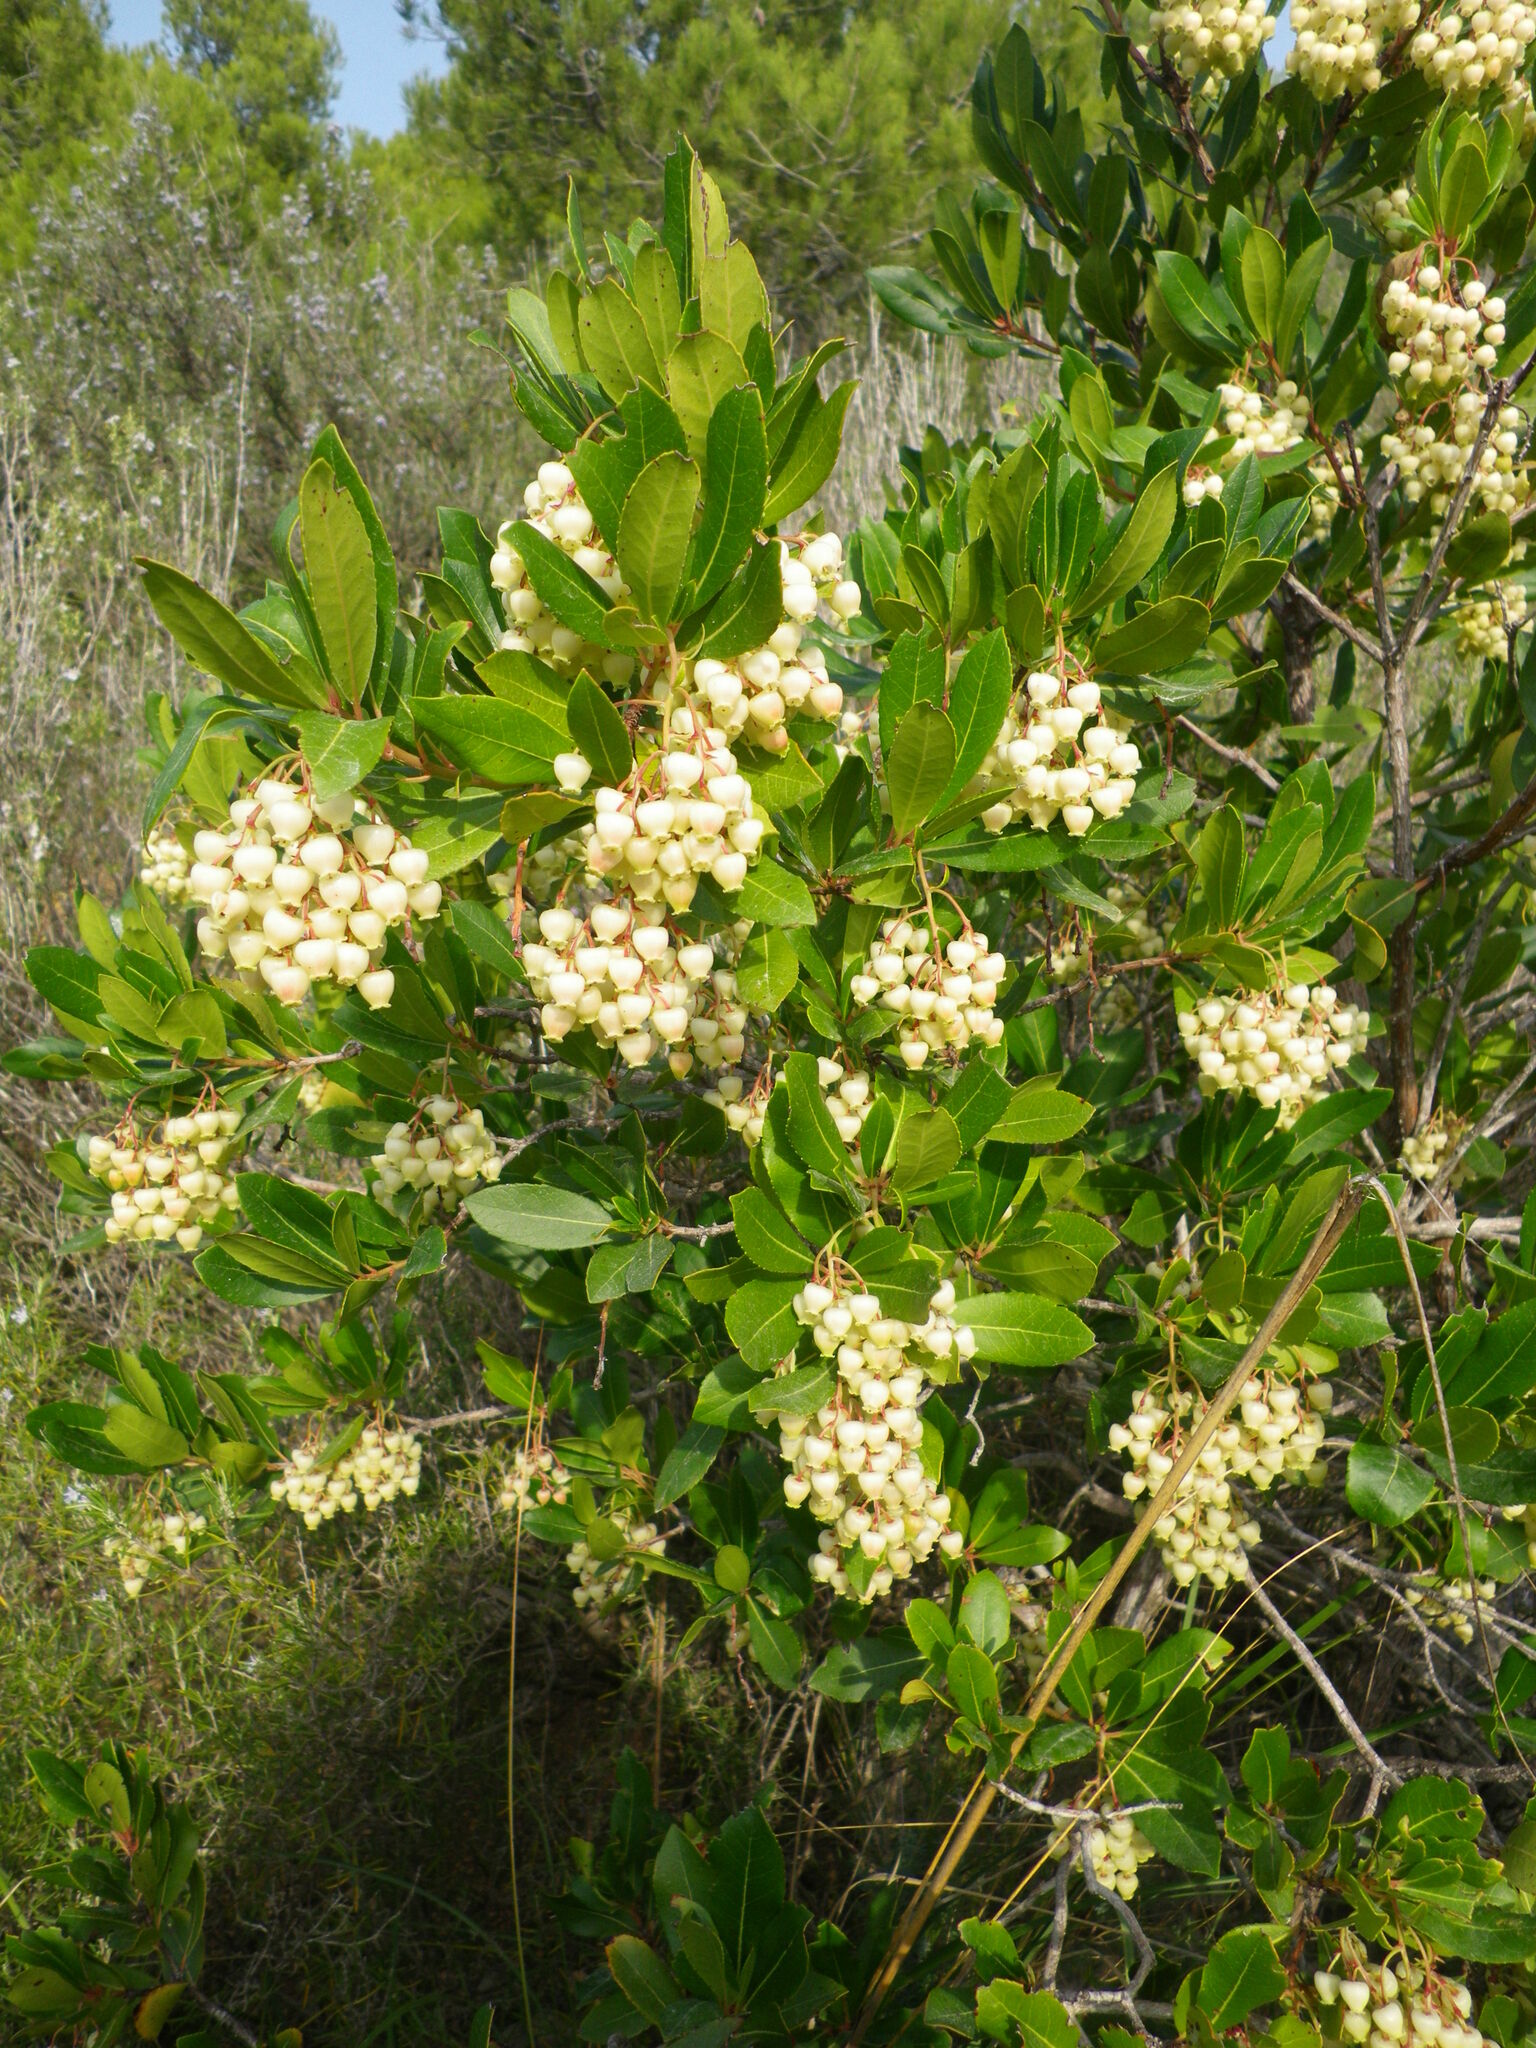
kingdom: Plantae
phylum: Tracheophyta
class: Magnoliopsida
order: Ericales
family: Ericaceae
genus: Arbutus
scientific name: Arbutus unedo
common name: Strawberry-tree
